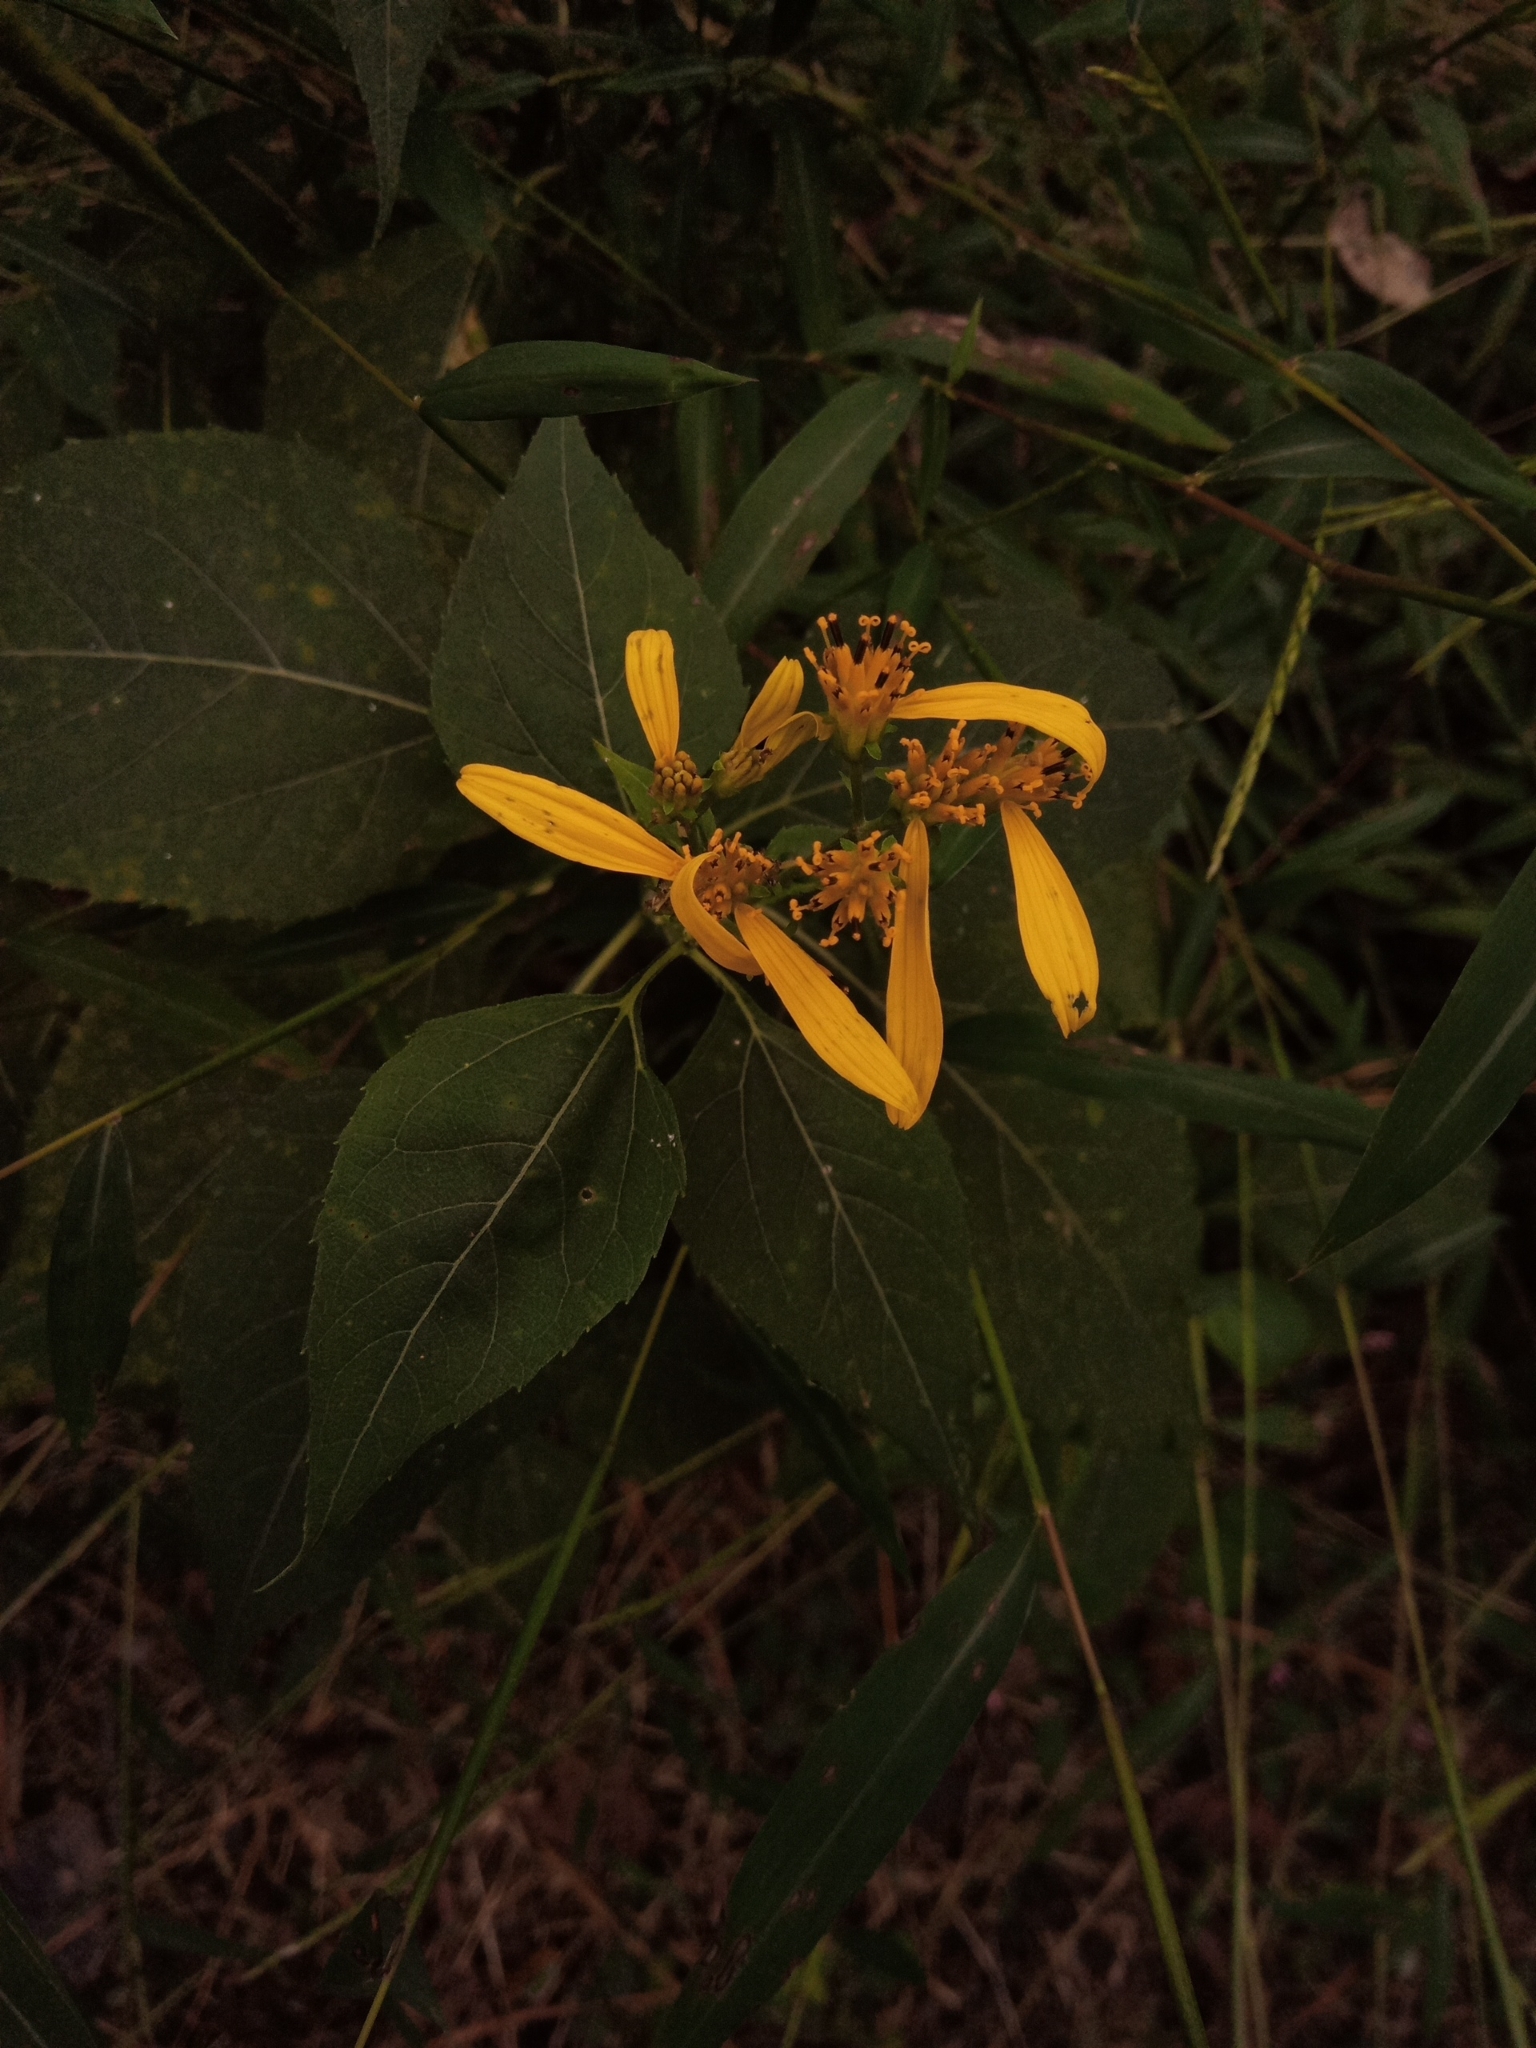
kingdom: Plantae
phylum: Tracheophyta
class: Magnoliopsida
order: Asterales
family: Asteraceae
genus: Verbesina
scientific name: Verbesina occidentalis
